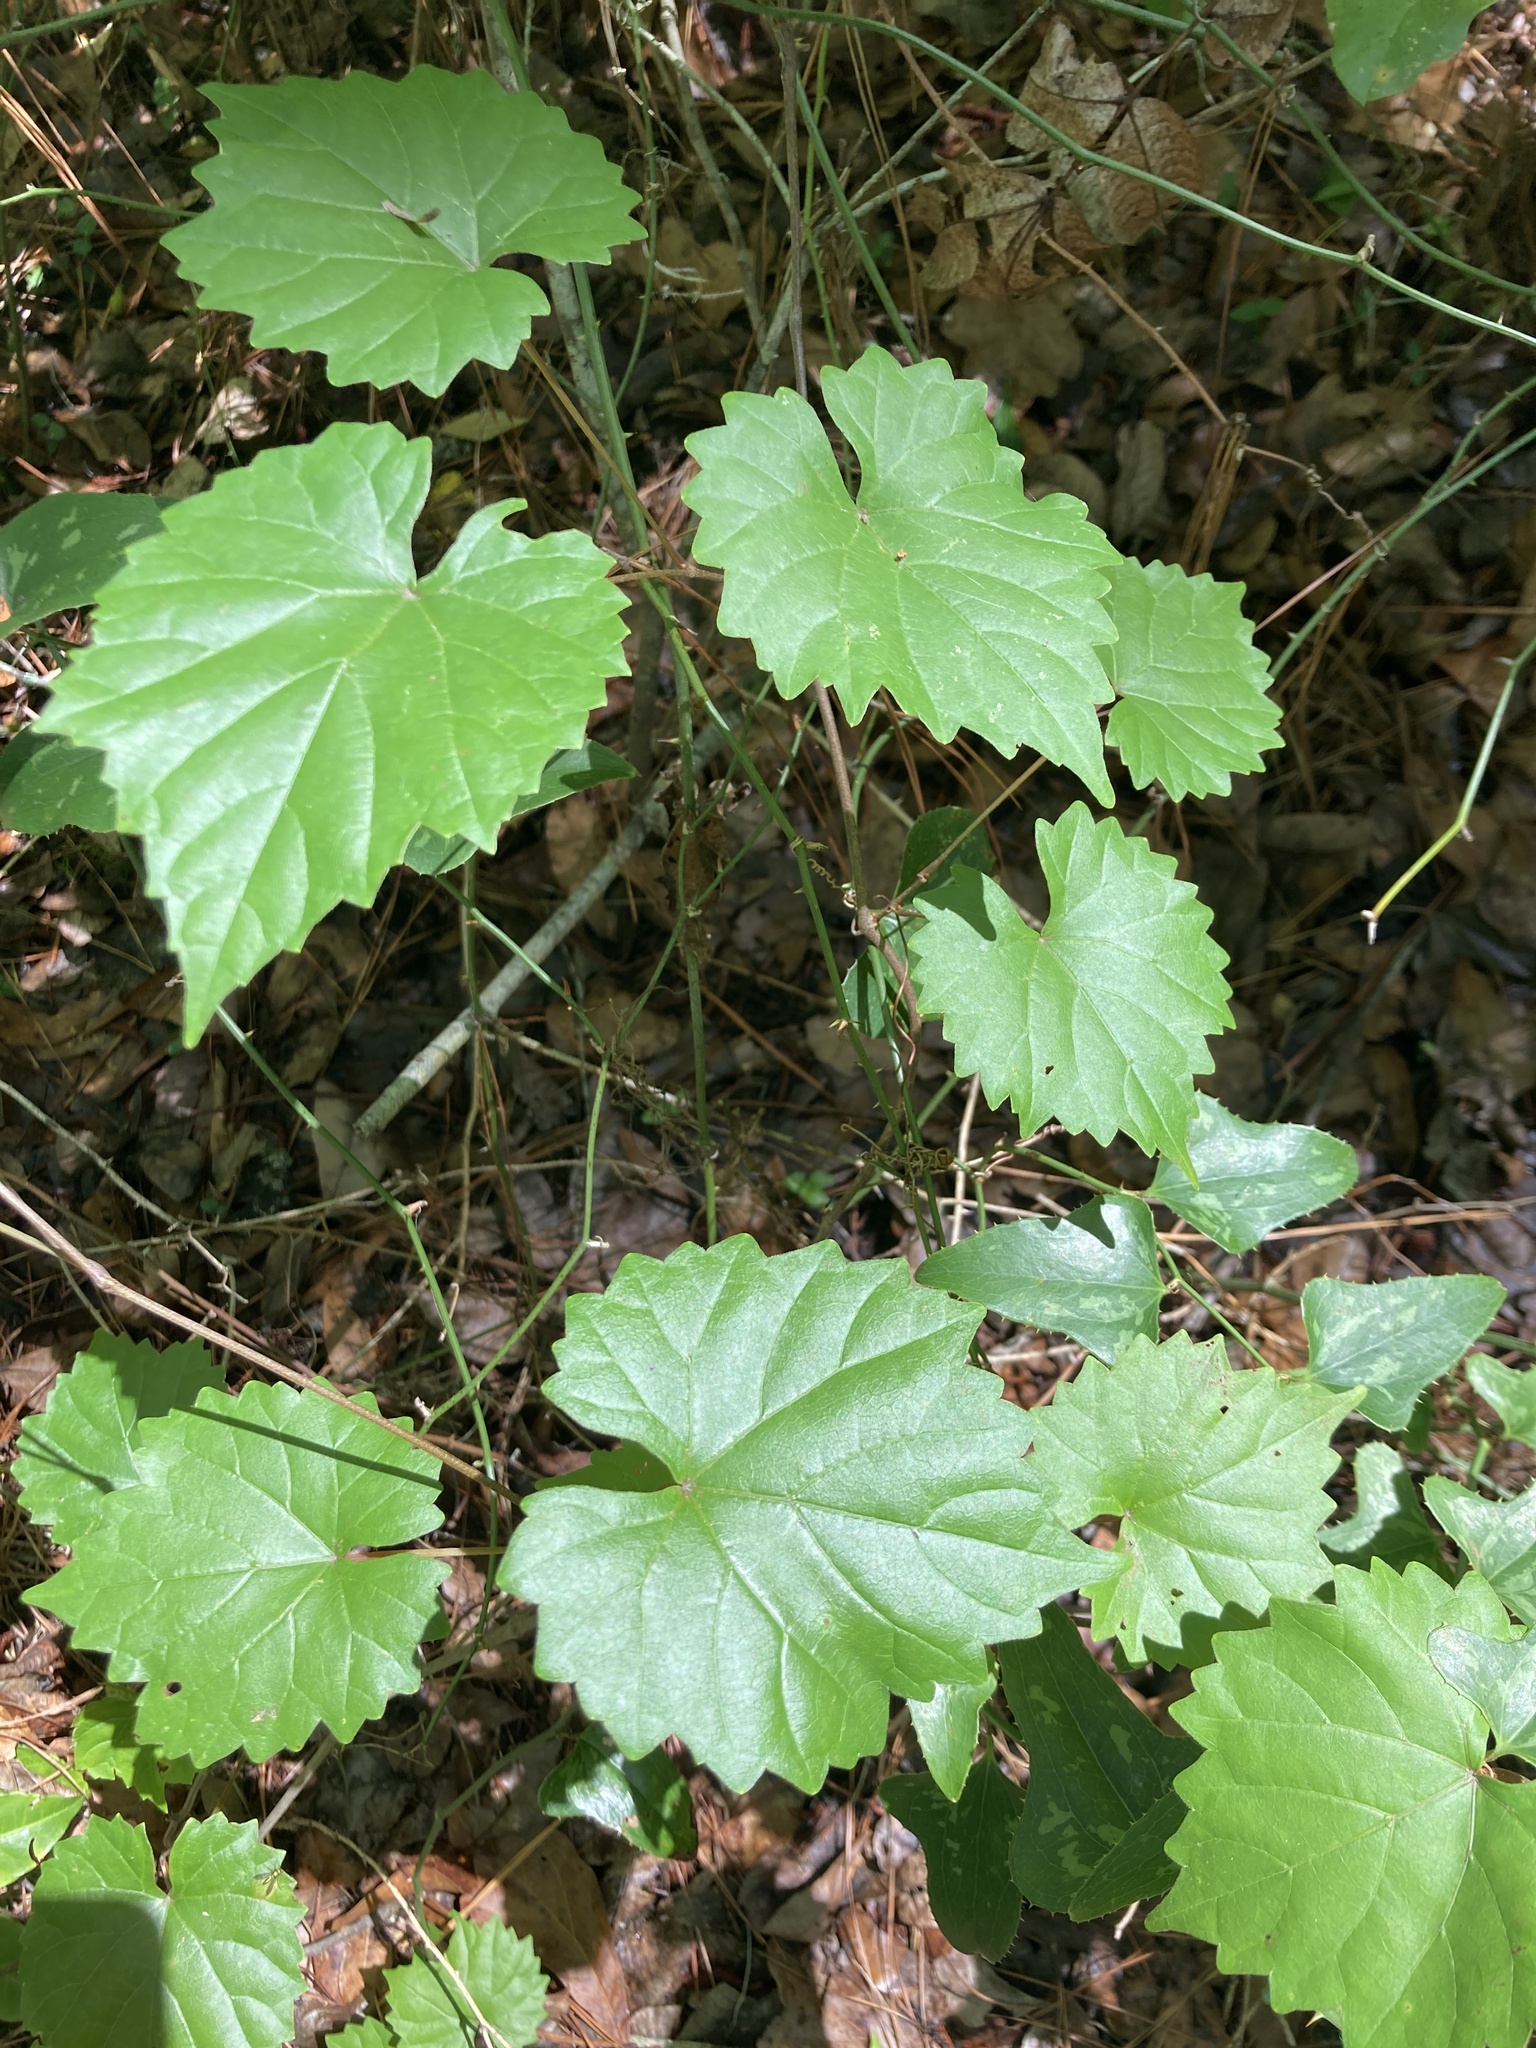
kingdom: Plantae
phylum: Tracheophyta
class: Magnoliopsida
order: Vitales
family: Vitaceae
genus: Vitis
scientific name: Vitis rotundifolia
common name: Muscadine grape
